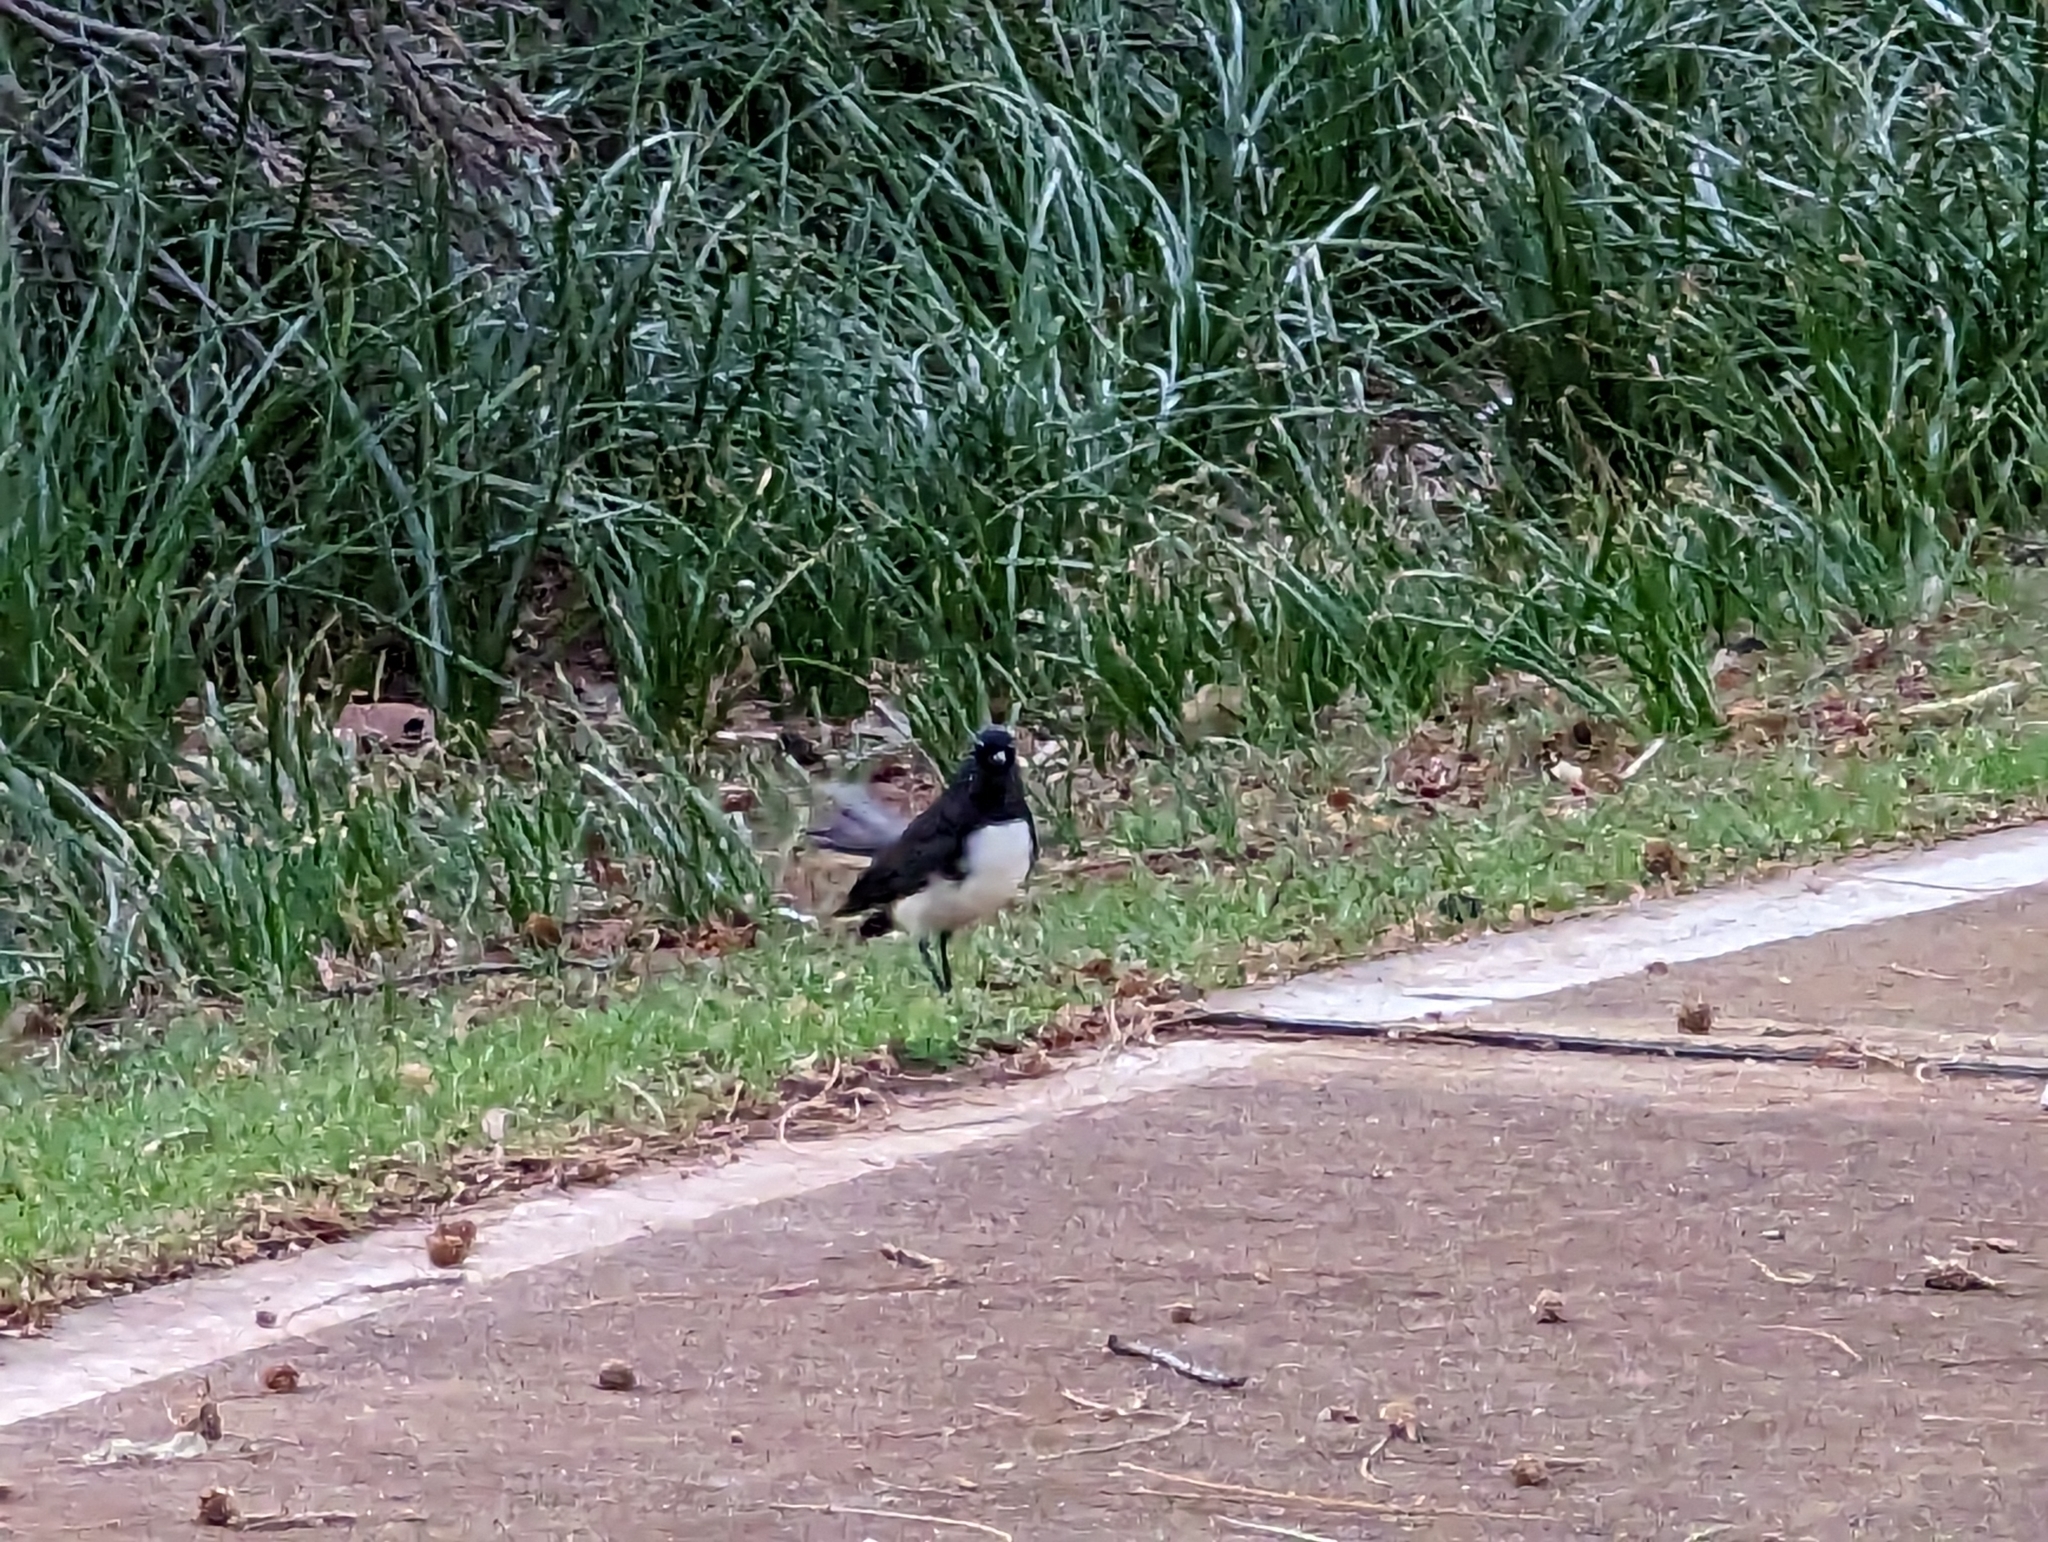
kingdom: Animalia
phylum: Chordata
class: Aves
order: Passeriformes
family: Rhipiduridae
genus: Rhipidura
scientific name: Rhipidura leucophrys
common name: Willie wagtail
